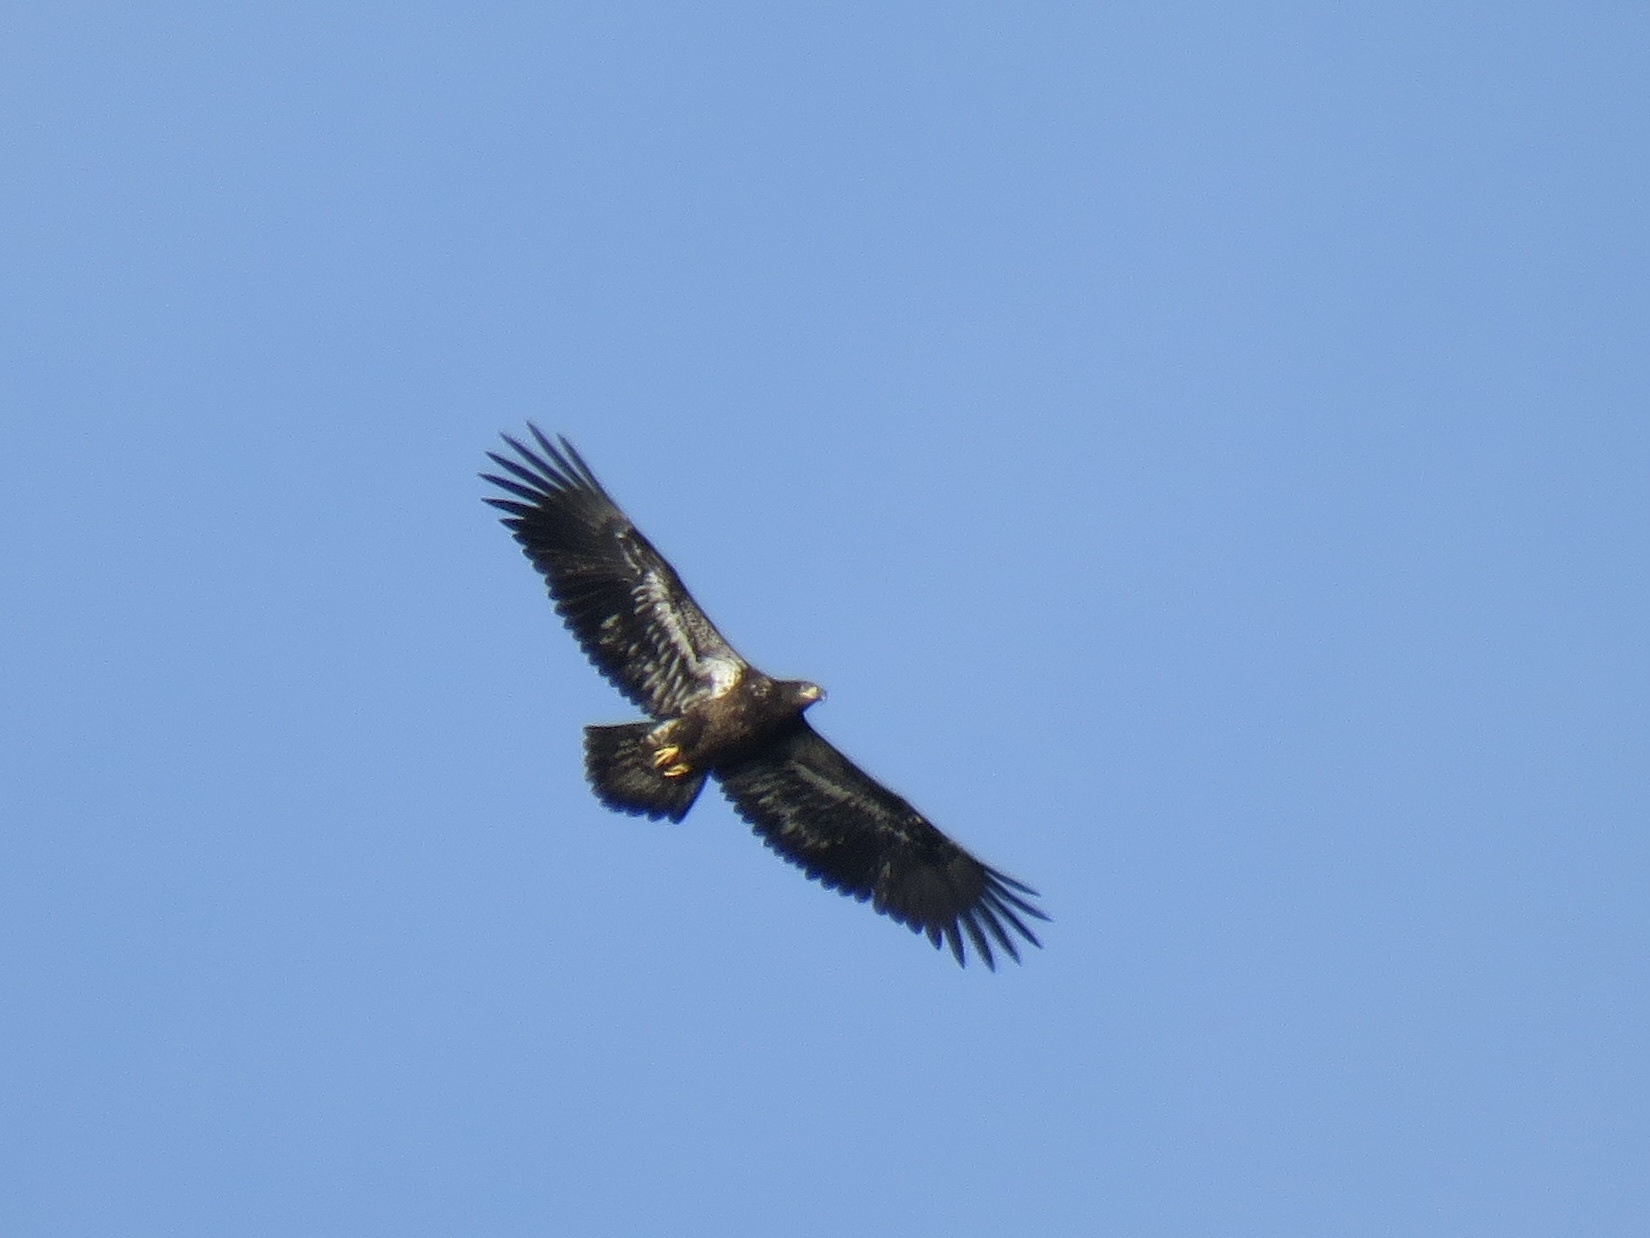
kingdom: Animalia
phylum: Chordata
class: Aves
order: Accipitriformes
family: Accipitridae
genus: Haliaeetus
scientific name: Haliaeetus leucocephalus
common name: Bald eagle
